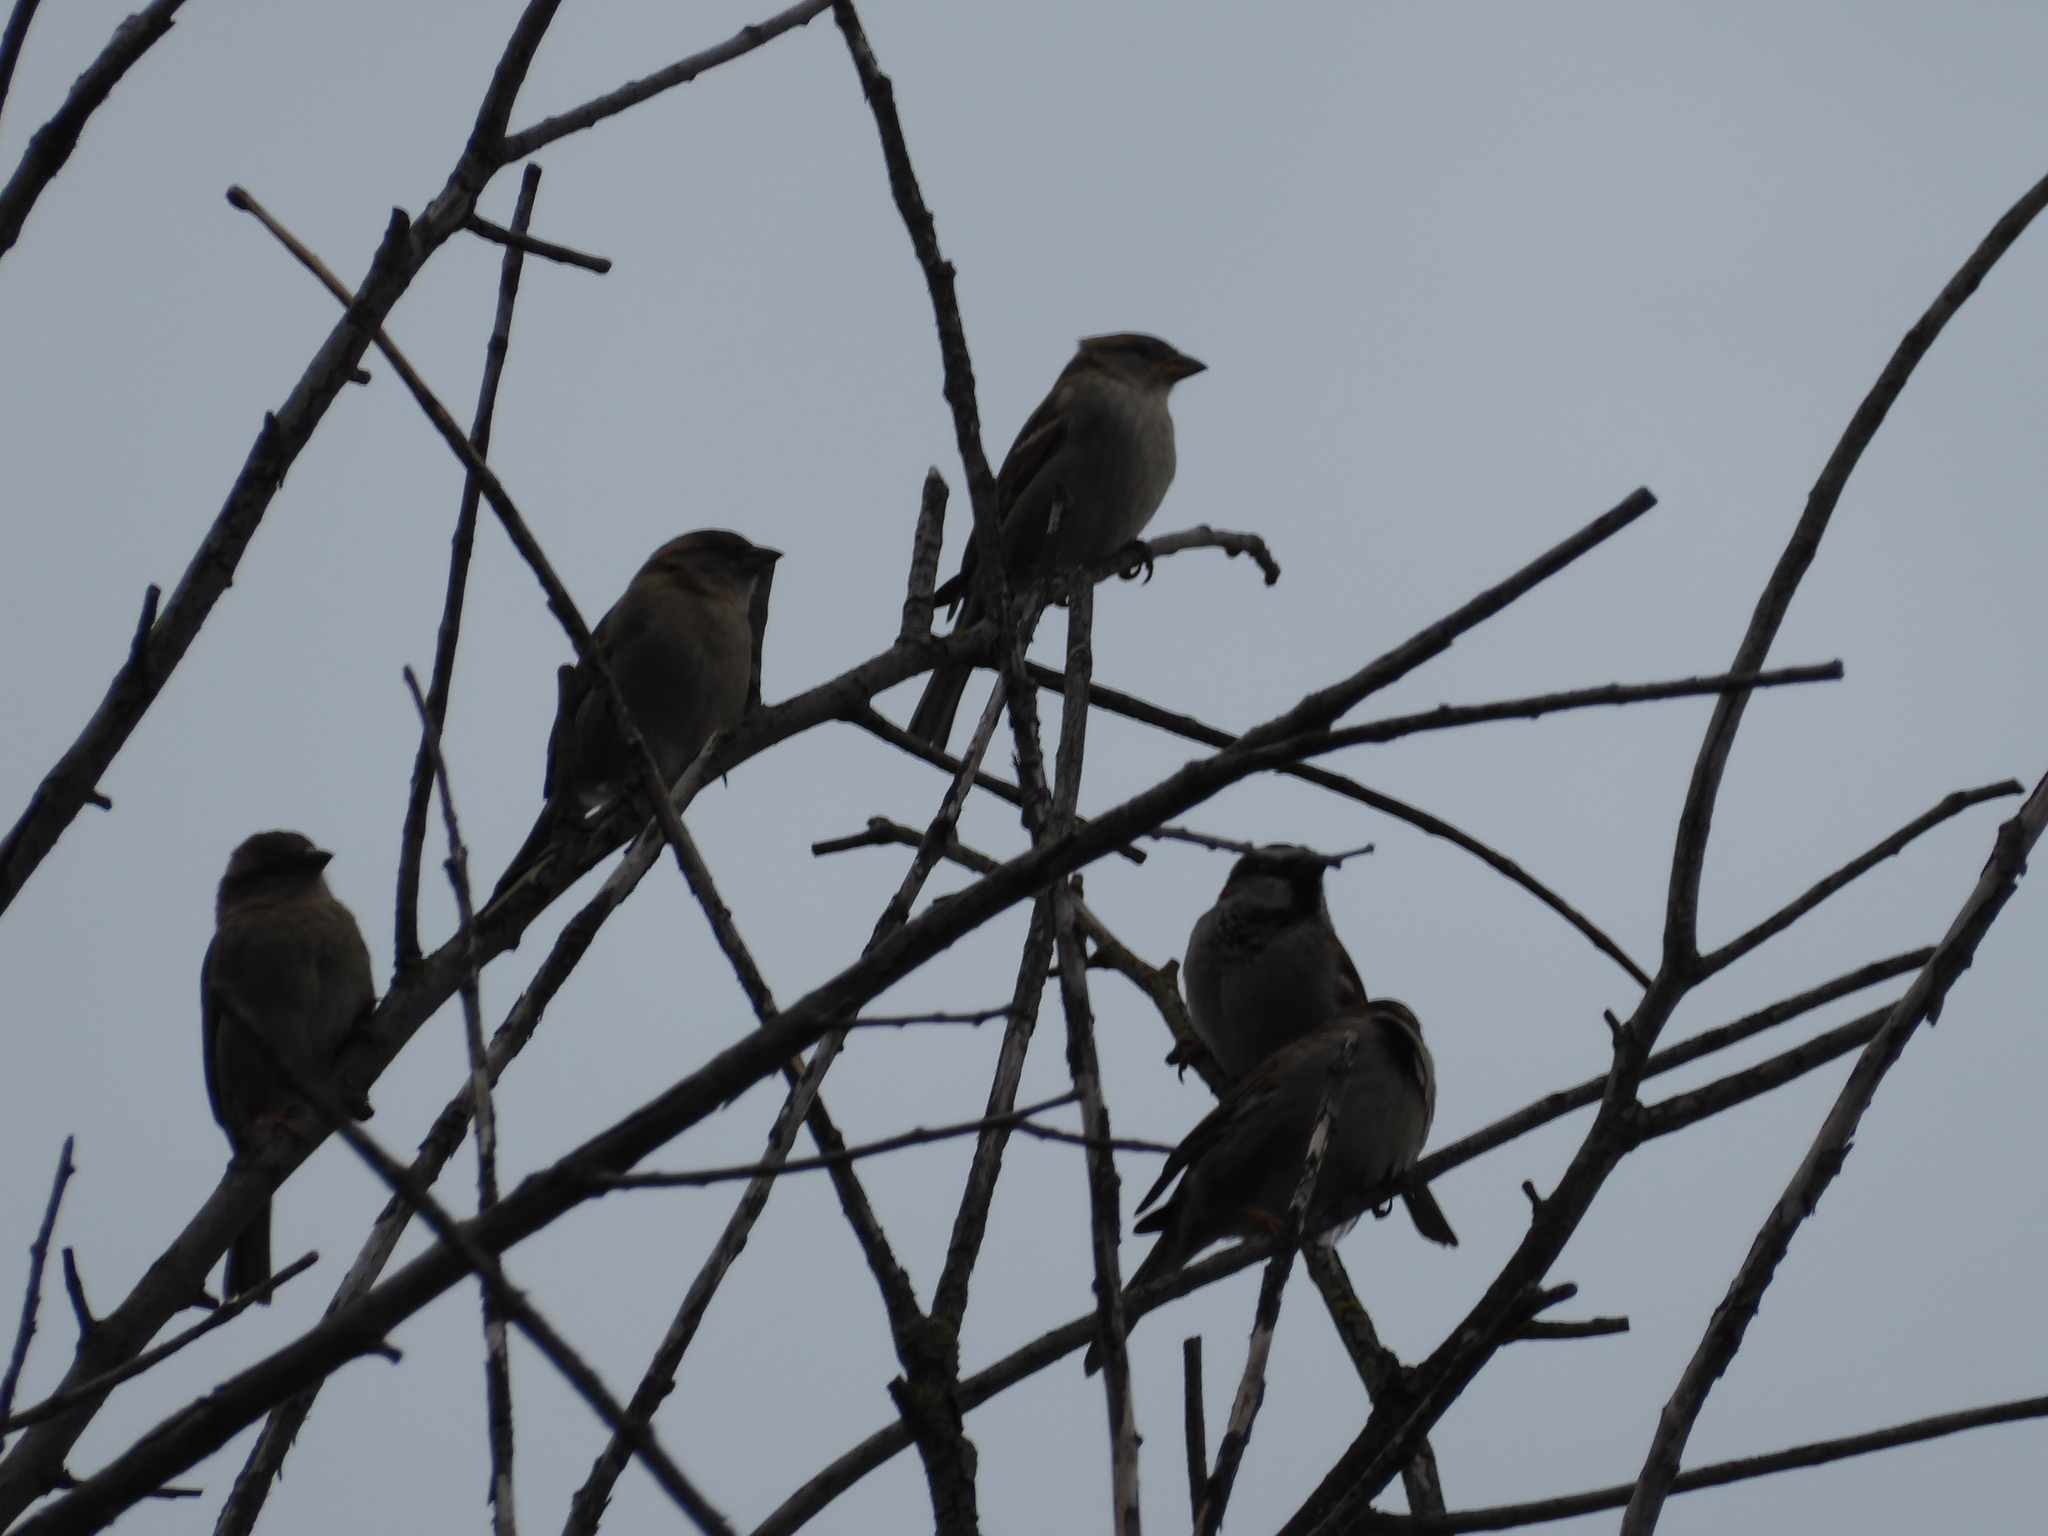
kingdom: Animalia
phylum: Chordata
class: Aves
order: Passeriformes
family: Passeridae
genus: Passer
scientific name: Passer domesticus
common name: House sparrow
